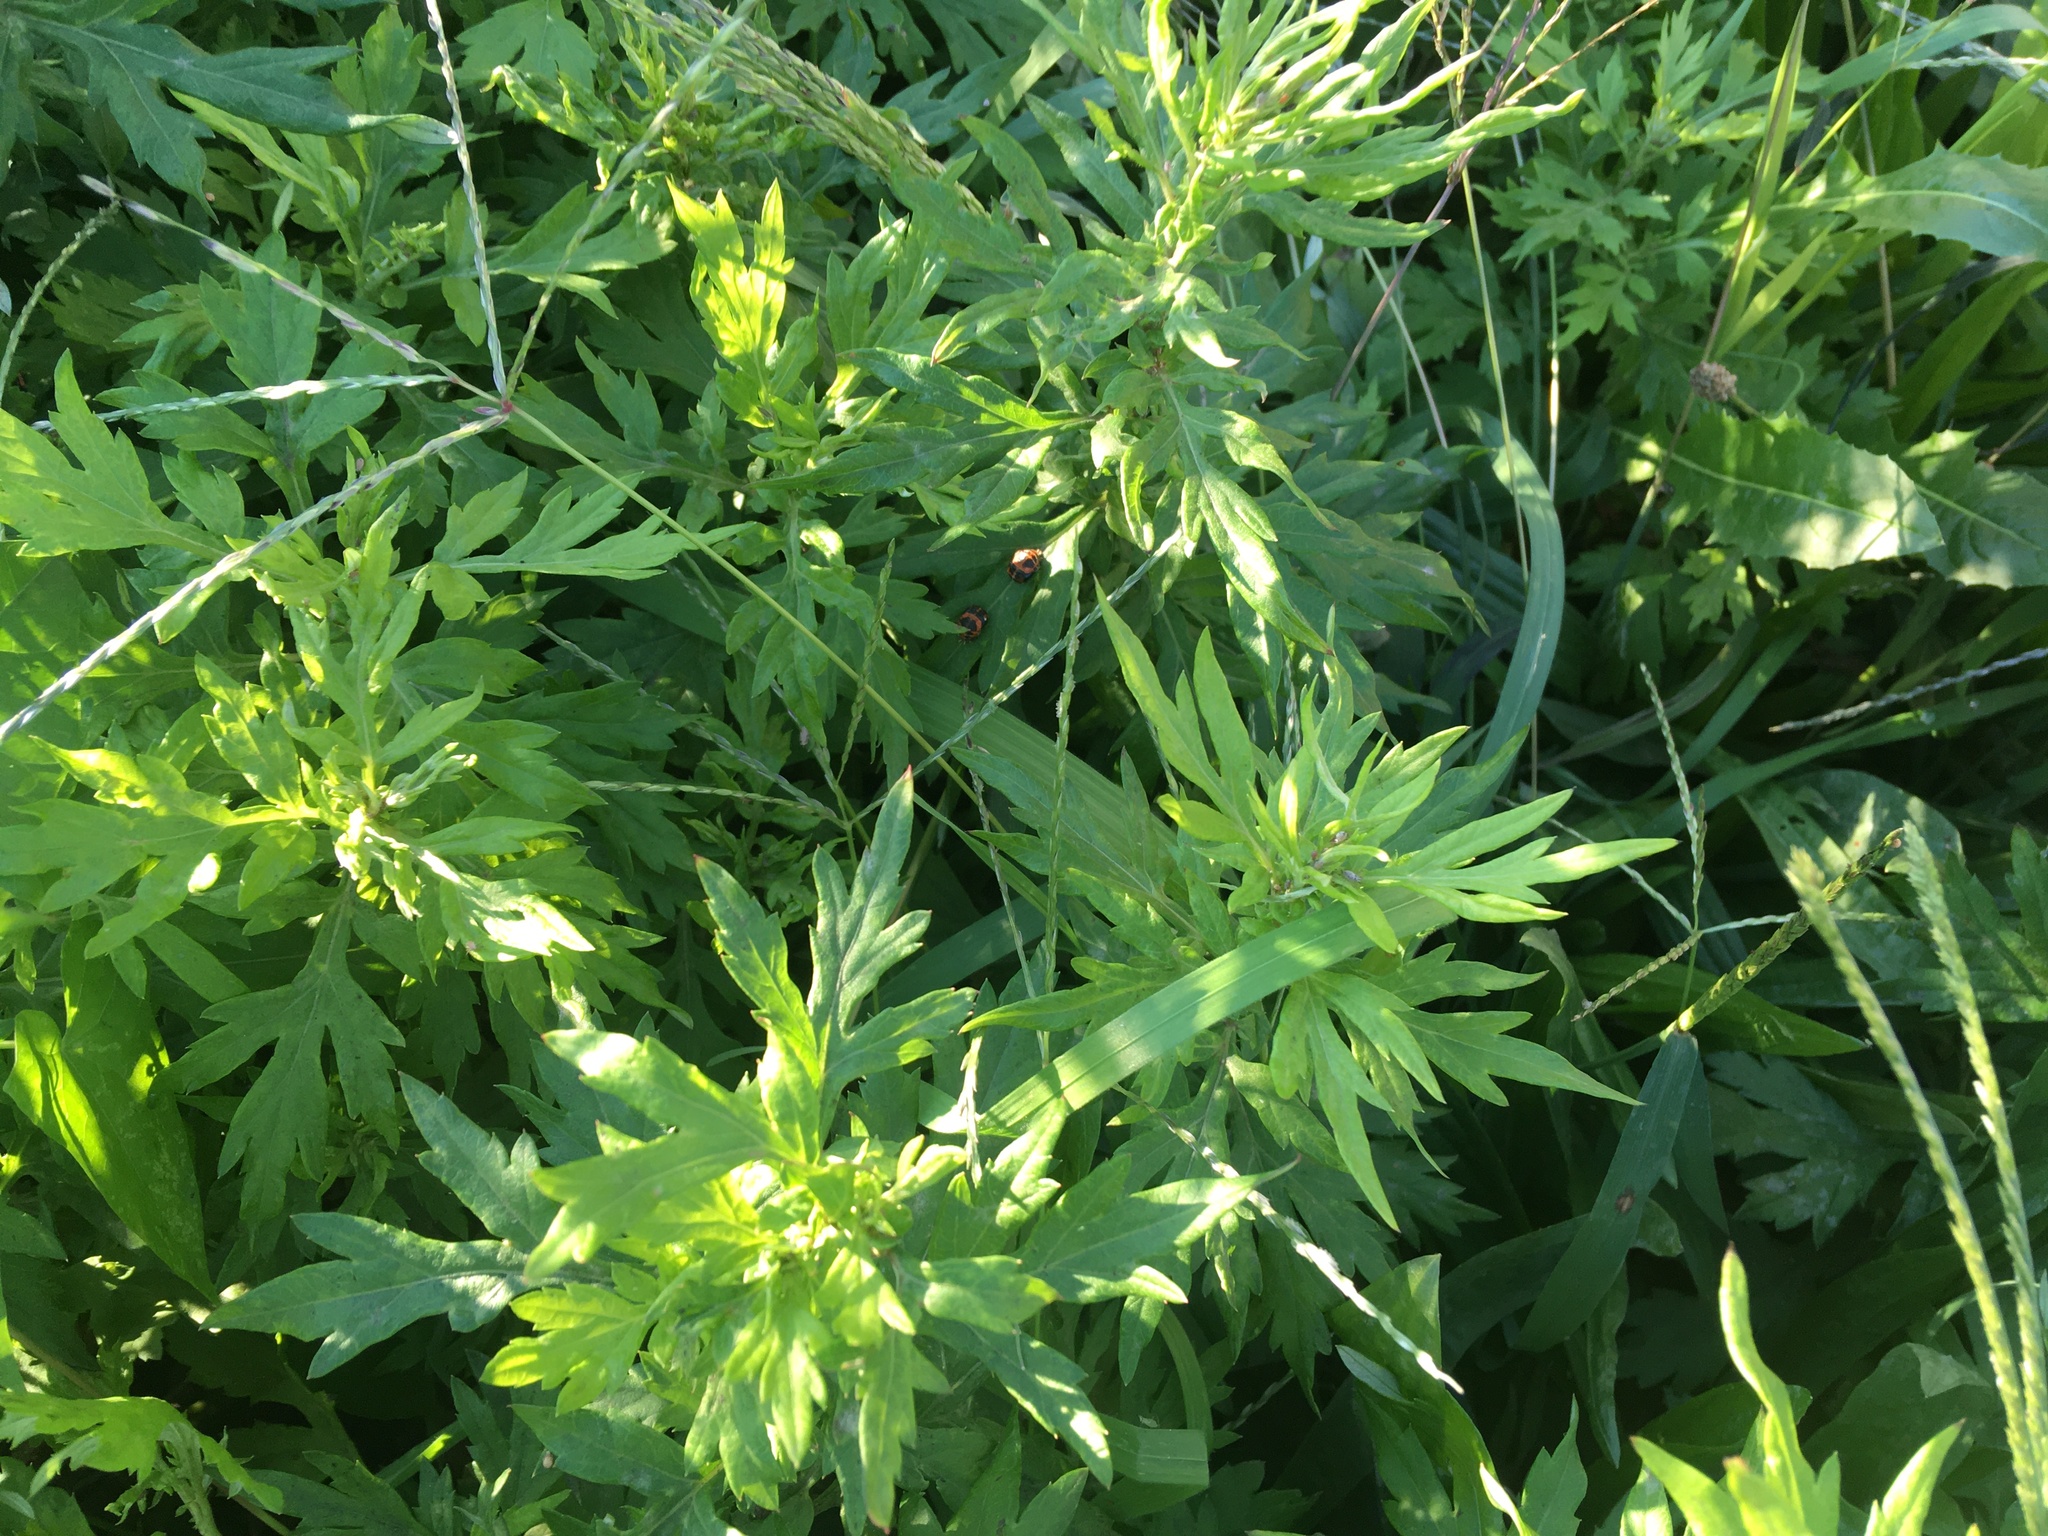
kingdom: Plantae
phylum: Tracheophyta
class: Magnoliopsida
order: Asterales
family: Asteraceae
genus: Artemisia
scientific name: Artemisia vulgaris
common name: Mugwort
